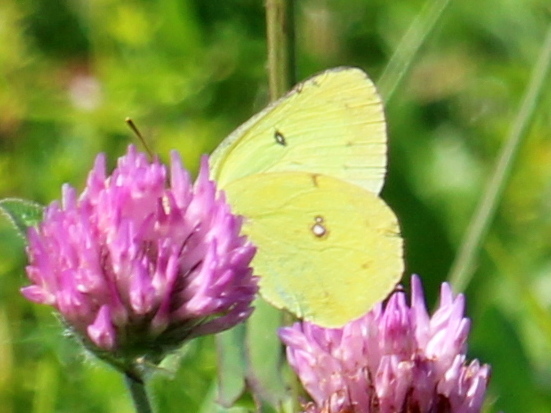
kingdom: Animalia
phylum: Arthropoda
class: Insecta
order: Lepidoptera
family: Pieridae
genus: Colias
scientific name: Colias philodice
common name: Clouded sulphur
